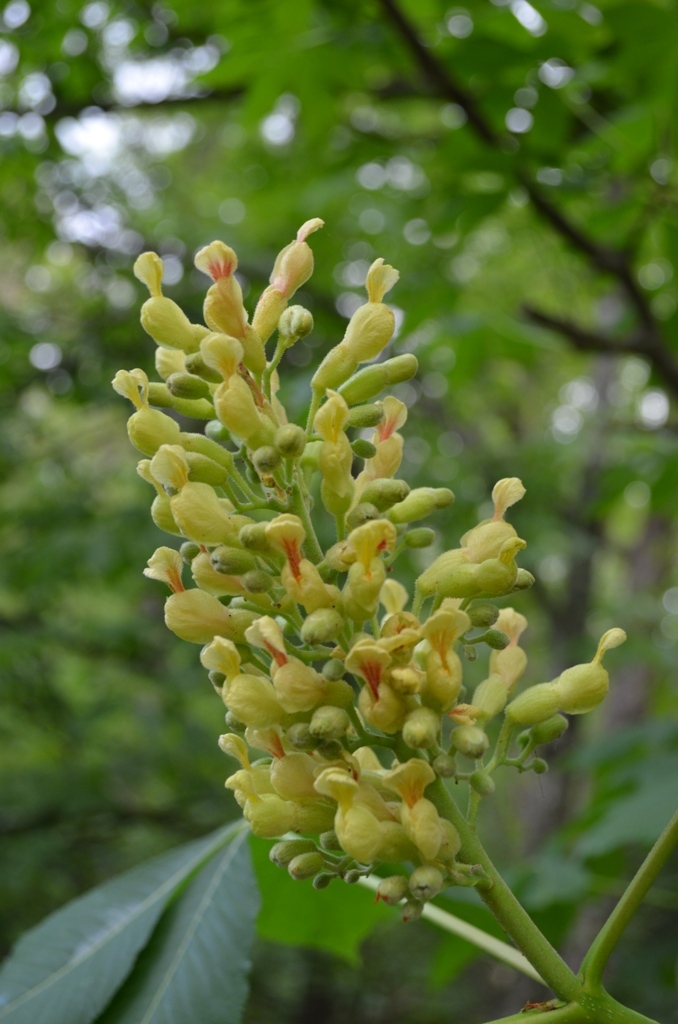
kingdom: Plantae
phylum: Tracheophyta
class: Magnoliopsida
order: Sapindales
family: Sapindaceae
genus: Aesculus
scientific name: Aesculus flava
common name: Yellow buckeye
